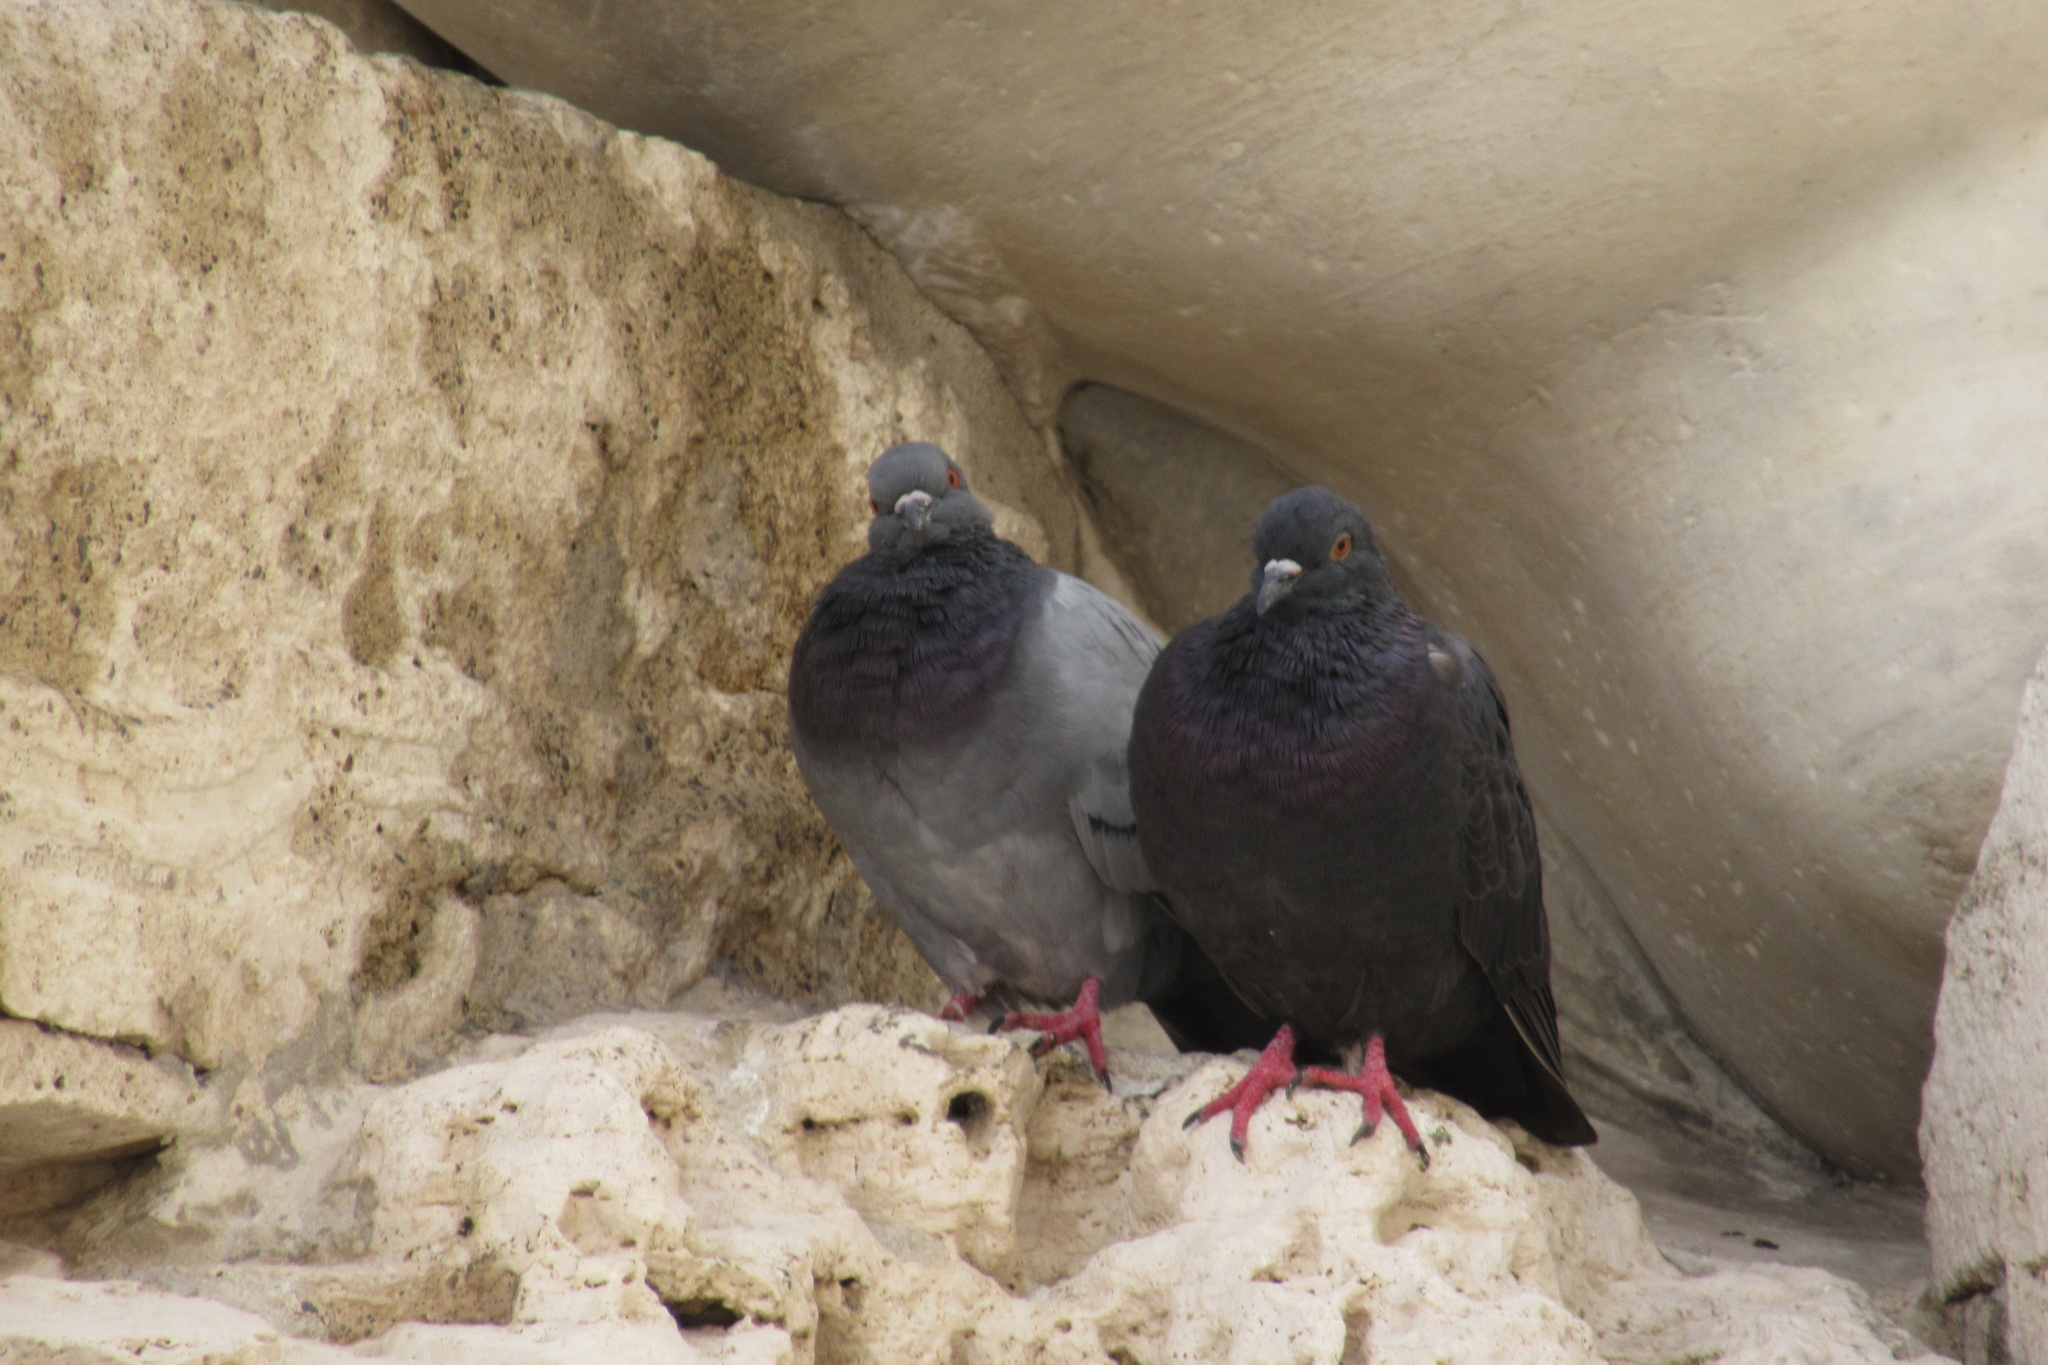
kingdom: Animalia
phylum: Chordata
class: Aves
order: Columbiformes
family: Columbidae
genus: Columba
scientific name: Columba livia
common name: Rock pigeon
